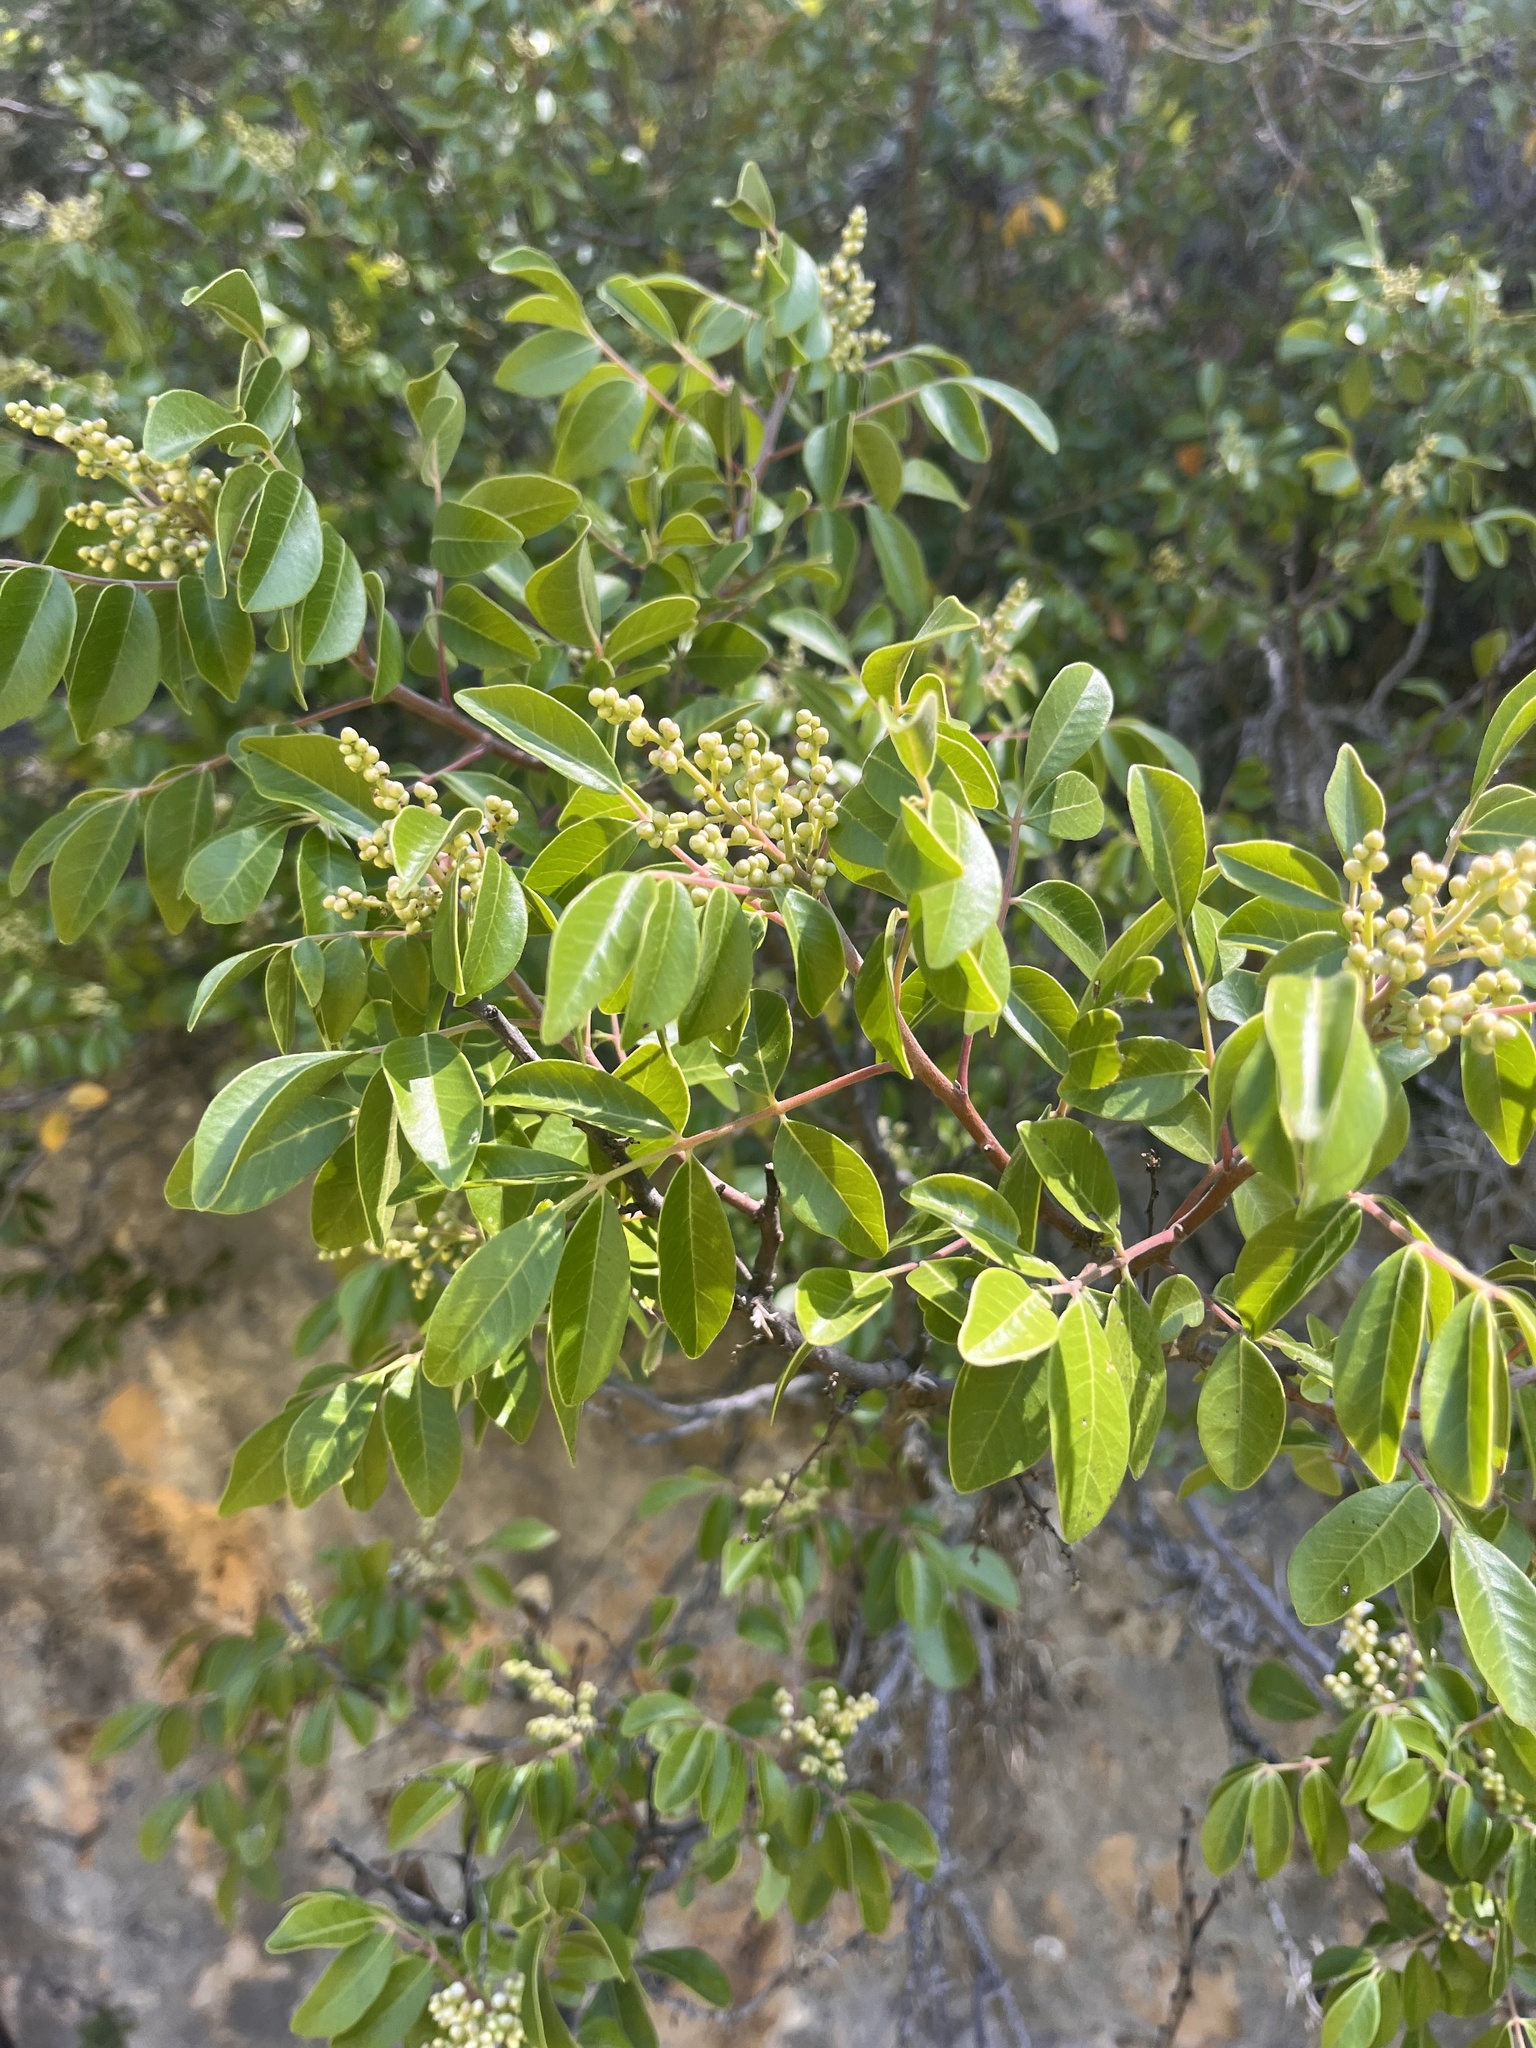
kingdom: Plantae
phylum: Tracheophyta
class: Magnoliopsida
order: Sapindales
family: Anacardiaceae
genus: Rhus
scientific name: Rhus virens
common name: Evergreen sumac
